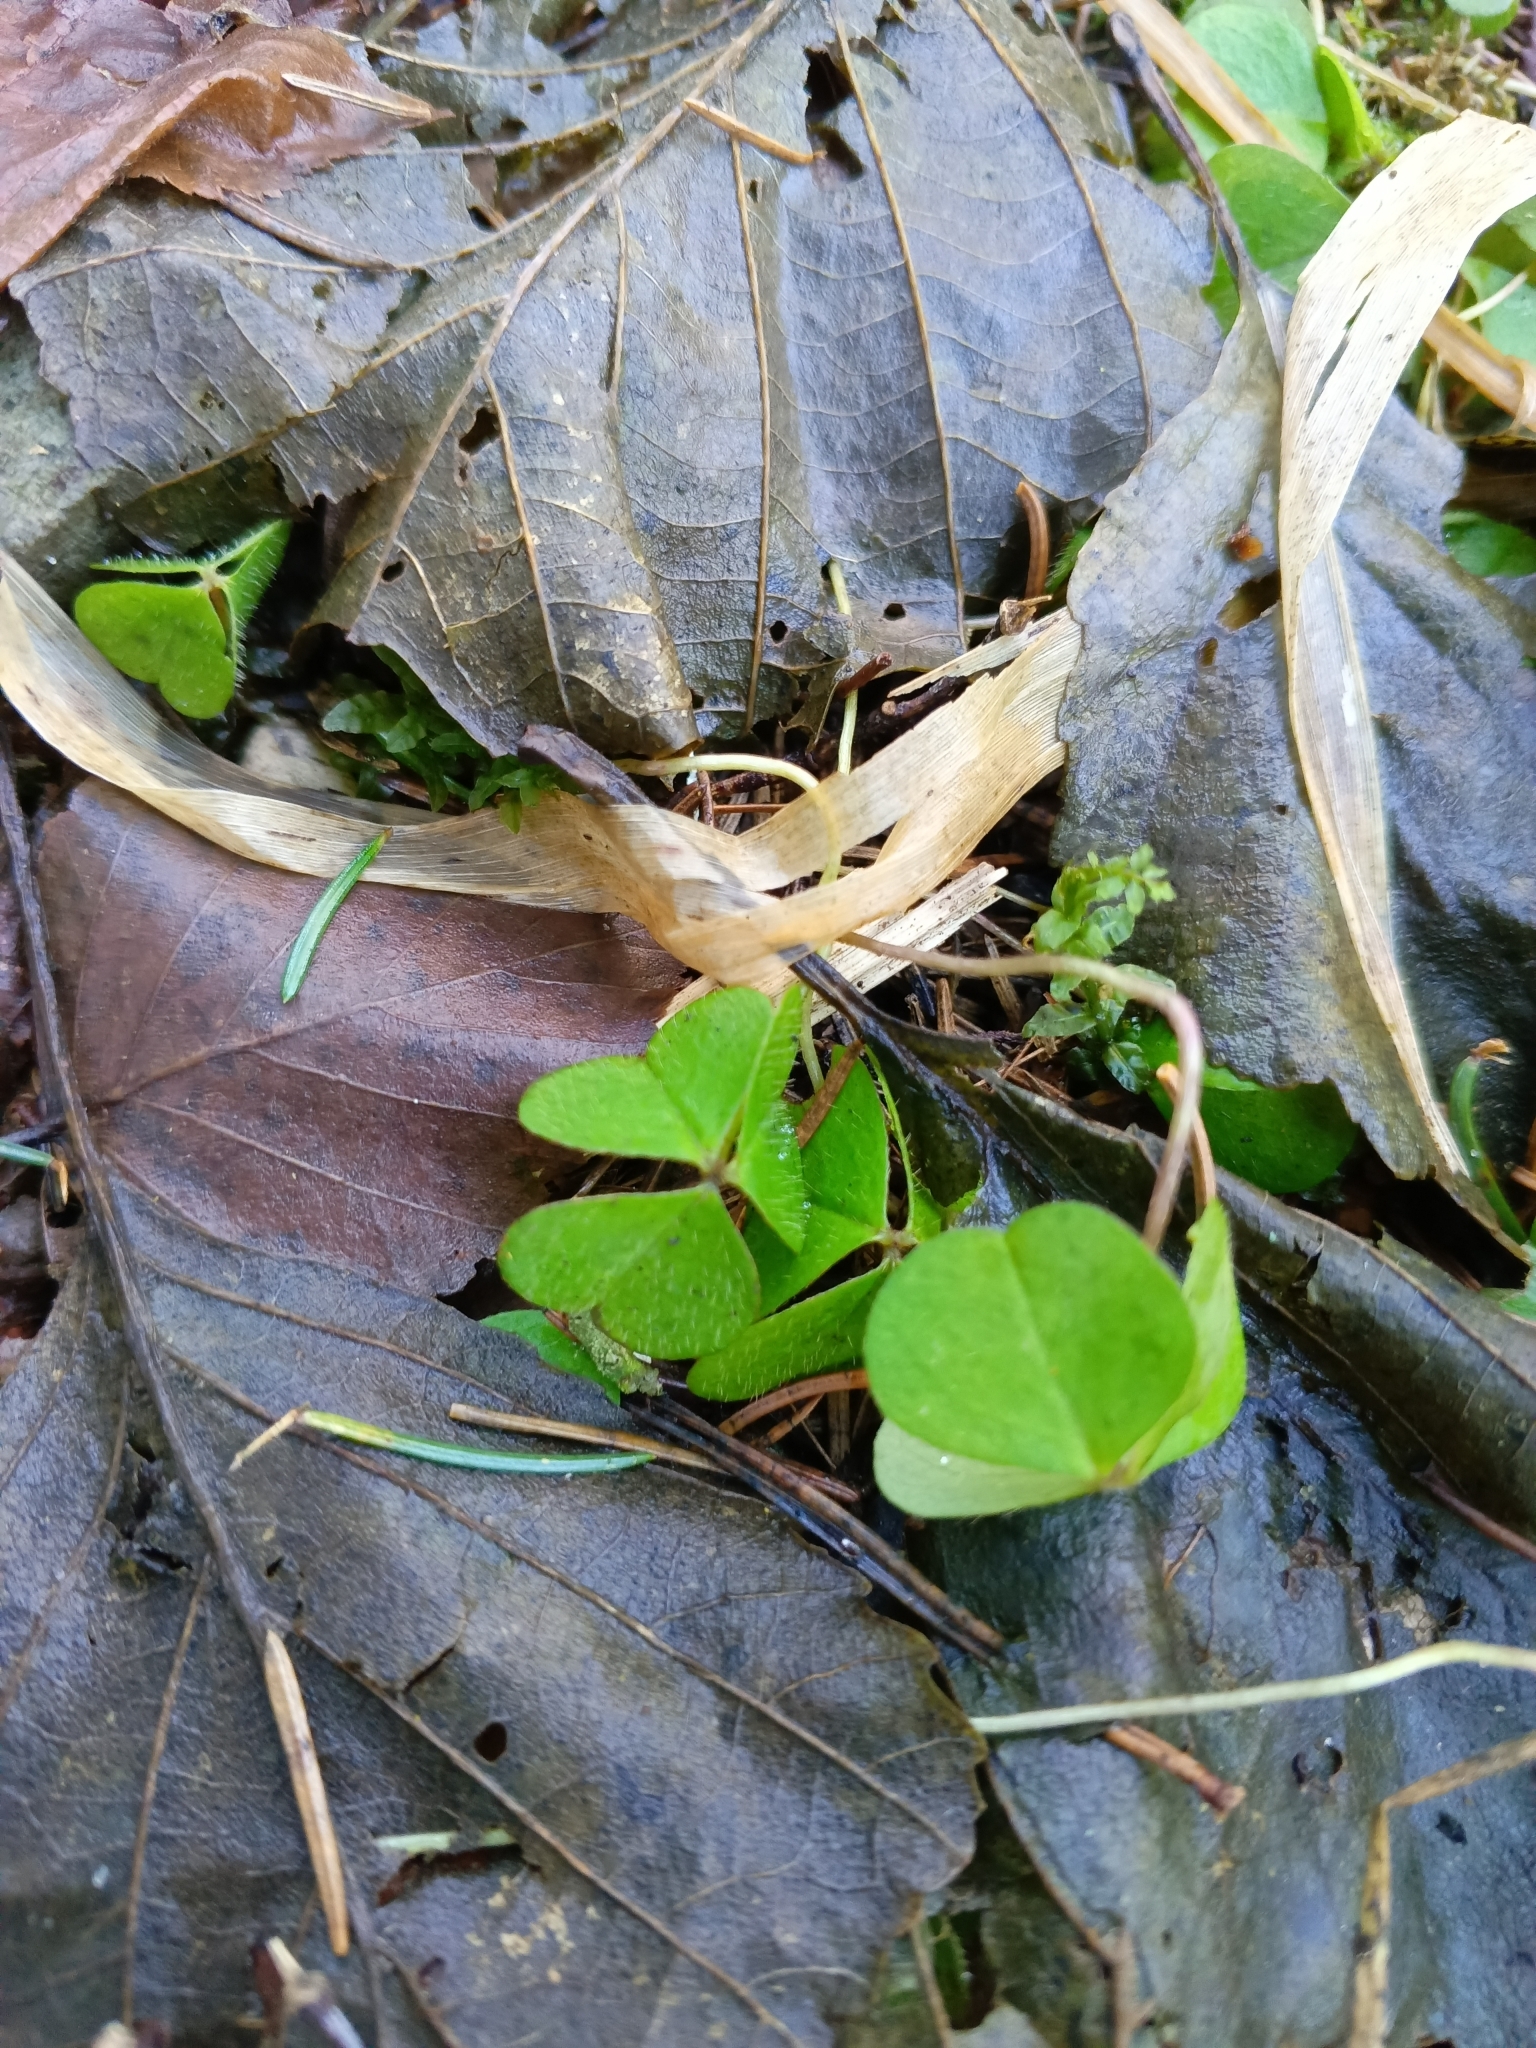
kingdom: Plantae
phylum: Tracheophyta
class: Magnoliopsida
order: Oxalidales
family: Oxalidaceae
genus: Oxalis
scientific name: Oxalis acetosella
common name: Wood-sorrel
